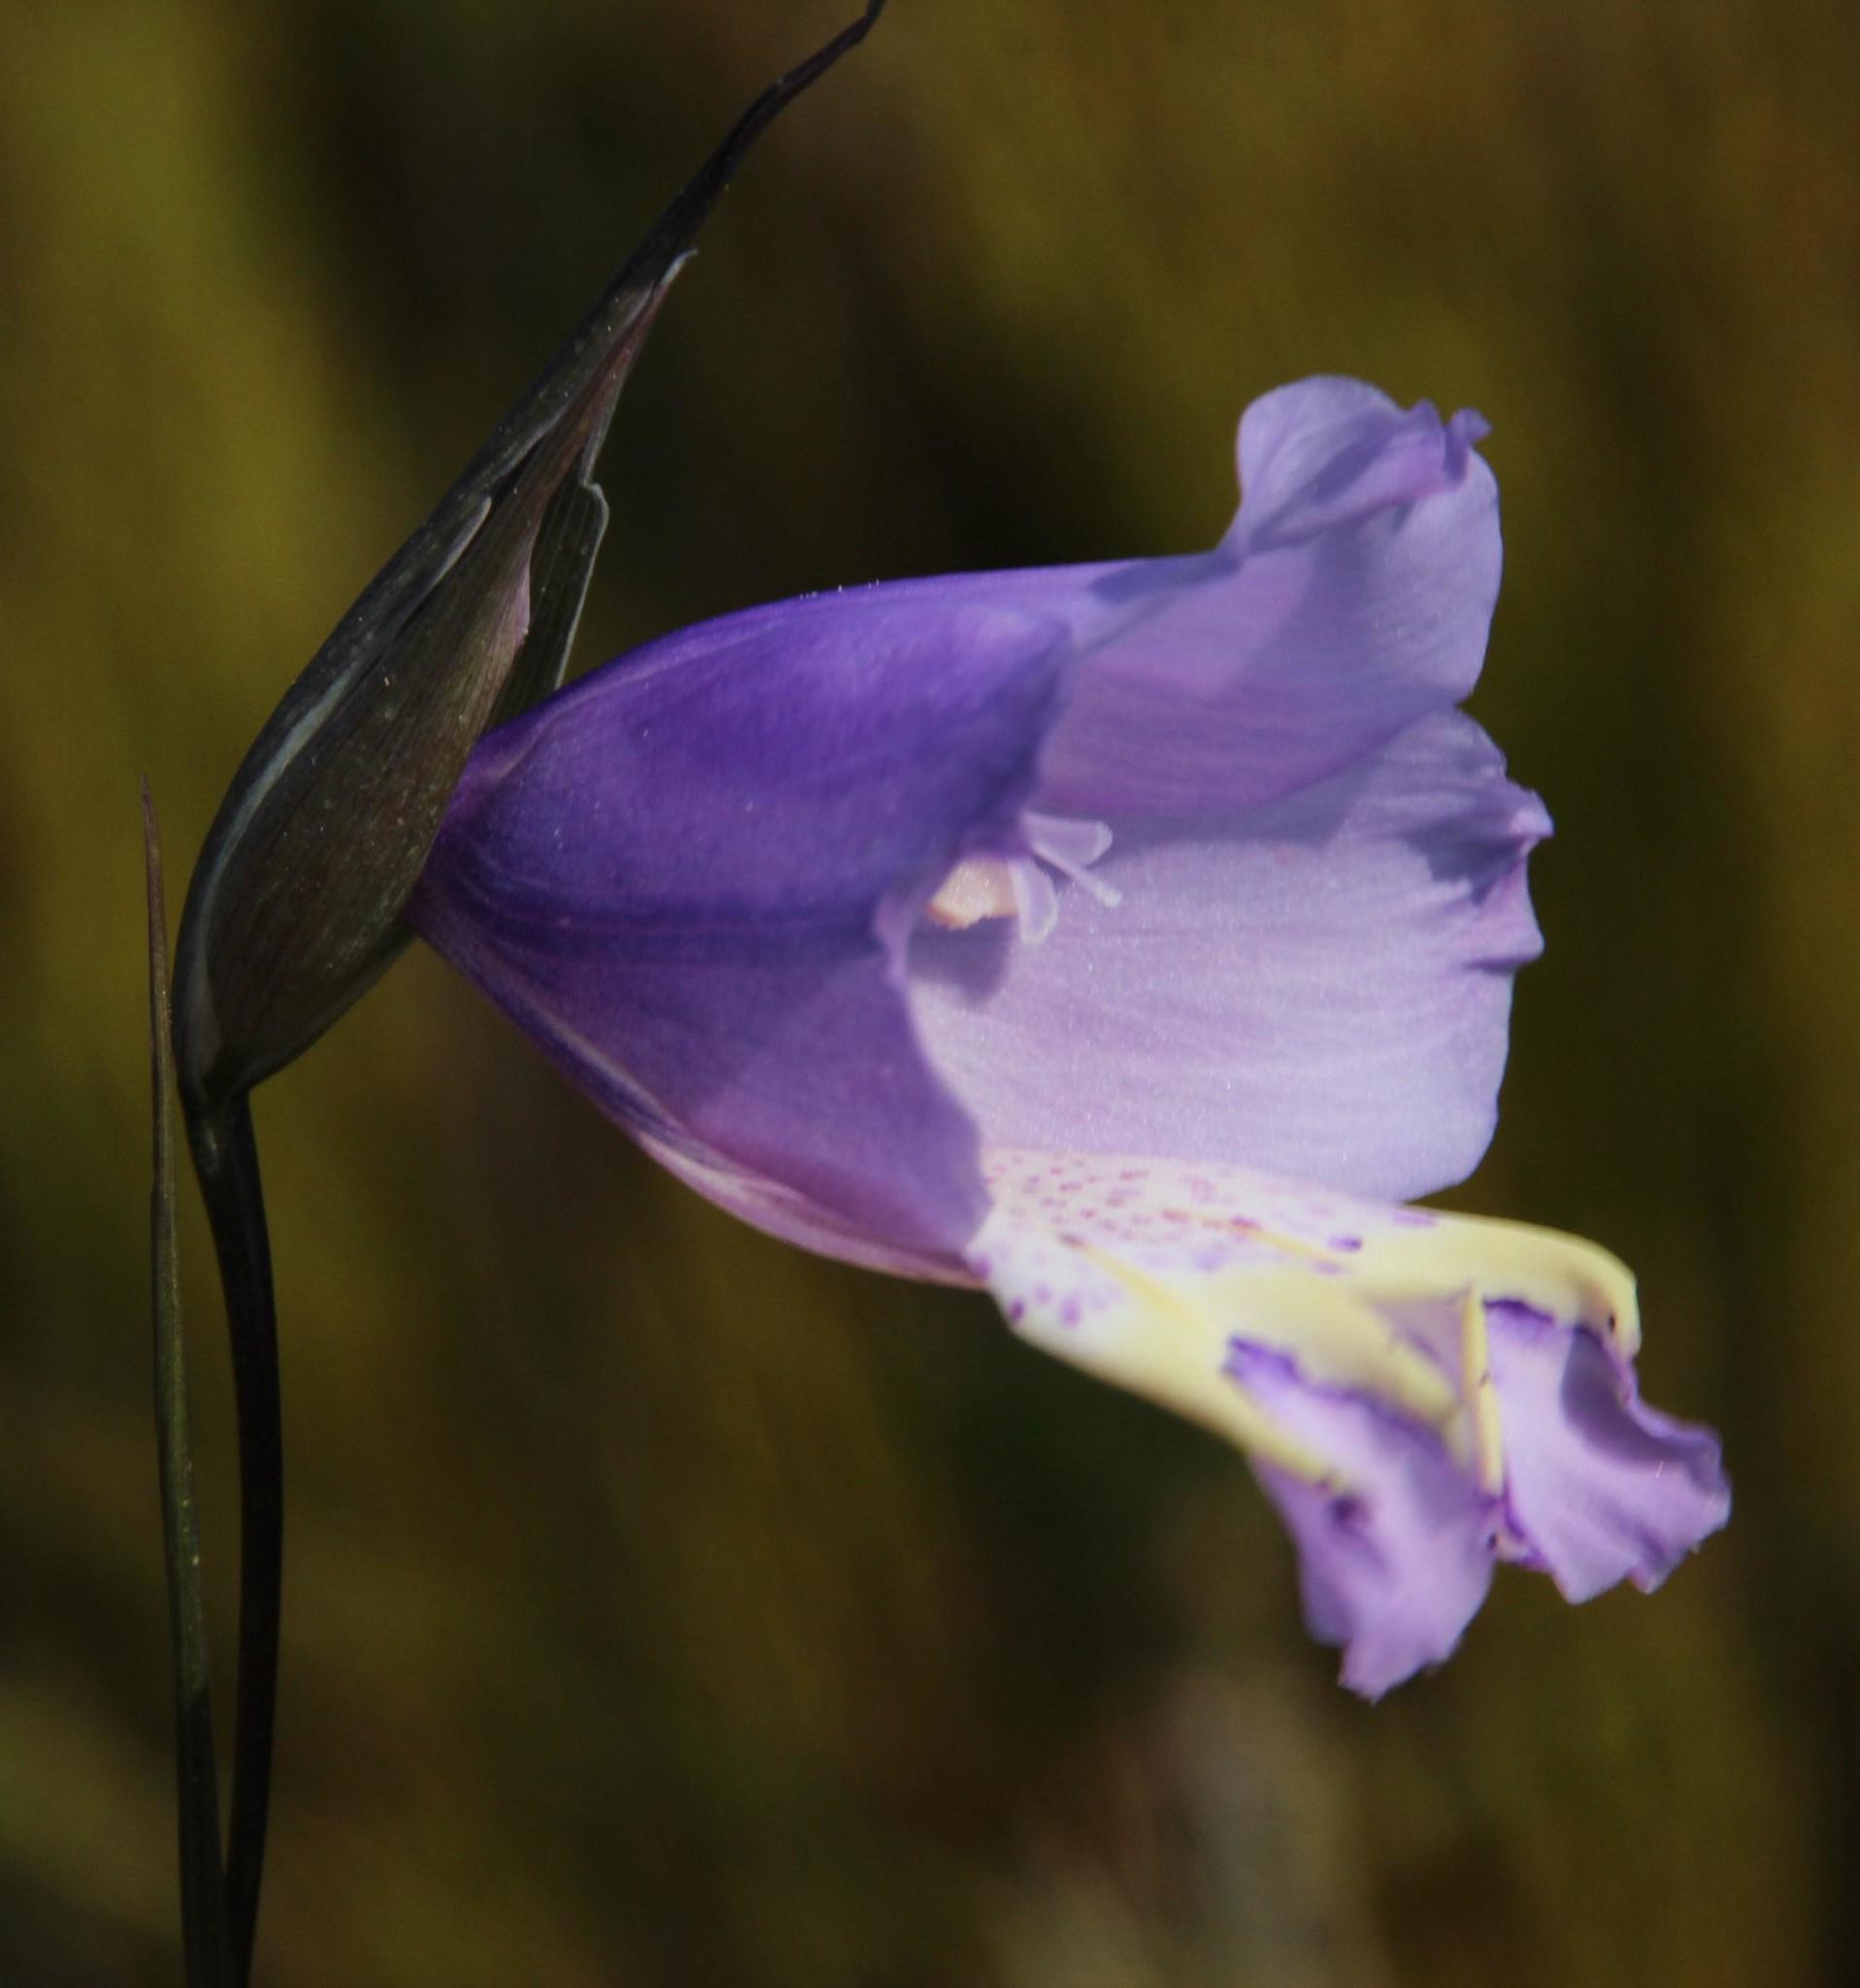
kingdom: Plantae
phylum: Tracheophyta
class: Liliopsida
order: Asparagales
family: Iridaceae
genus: Gladiolus
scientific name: Gladiolus bullatus
